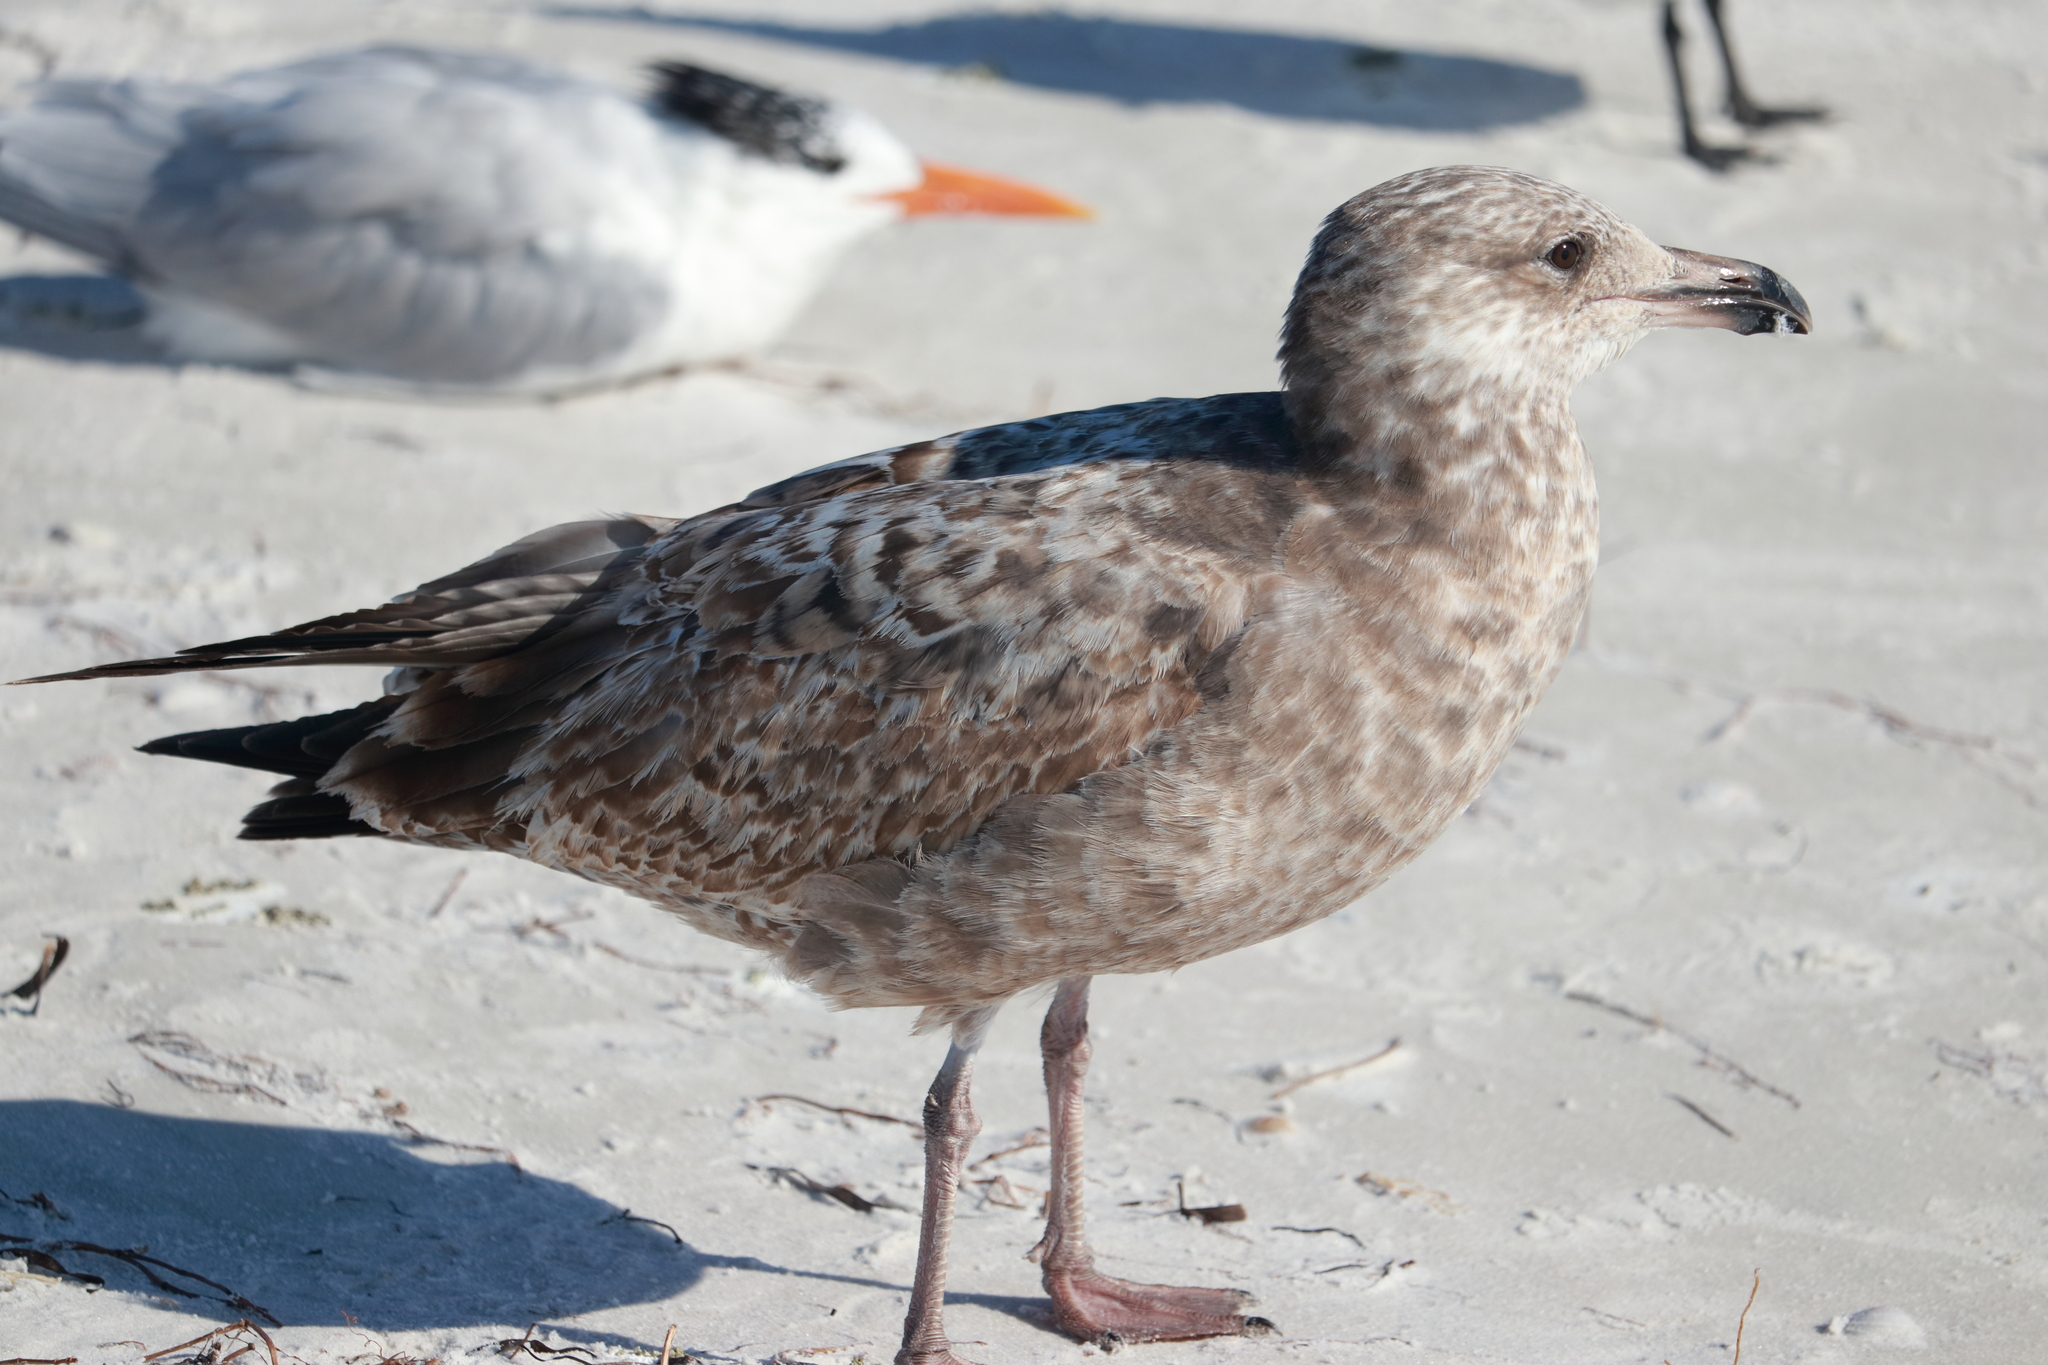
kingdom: Animalia
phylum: Chordata
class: Aves
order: Charadriiformes
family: Laridae
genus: Larus
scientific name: Larus argentatus
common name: Herring gull
